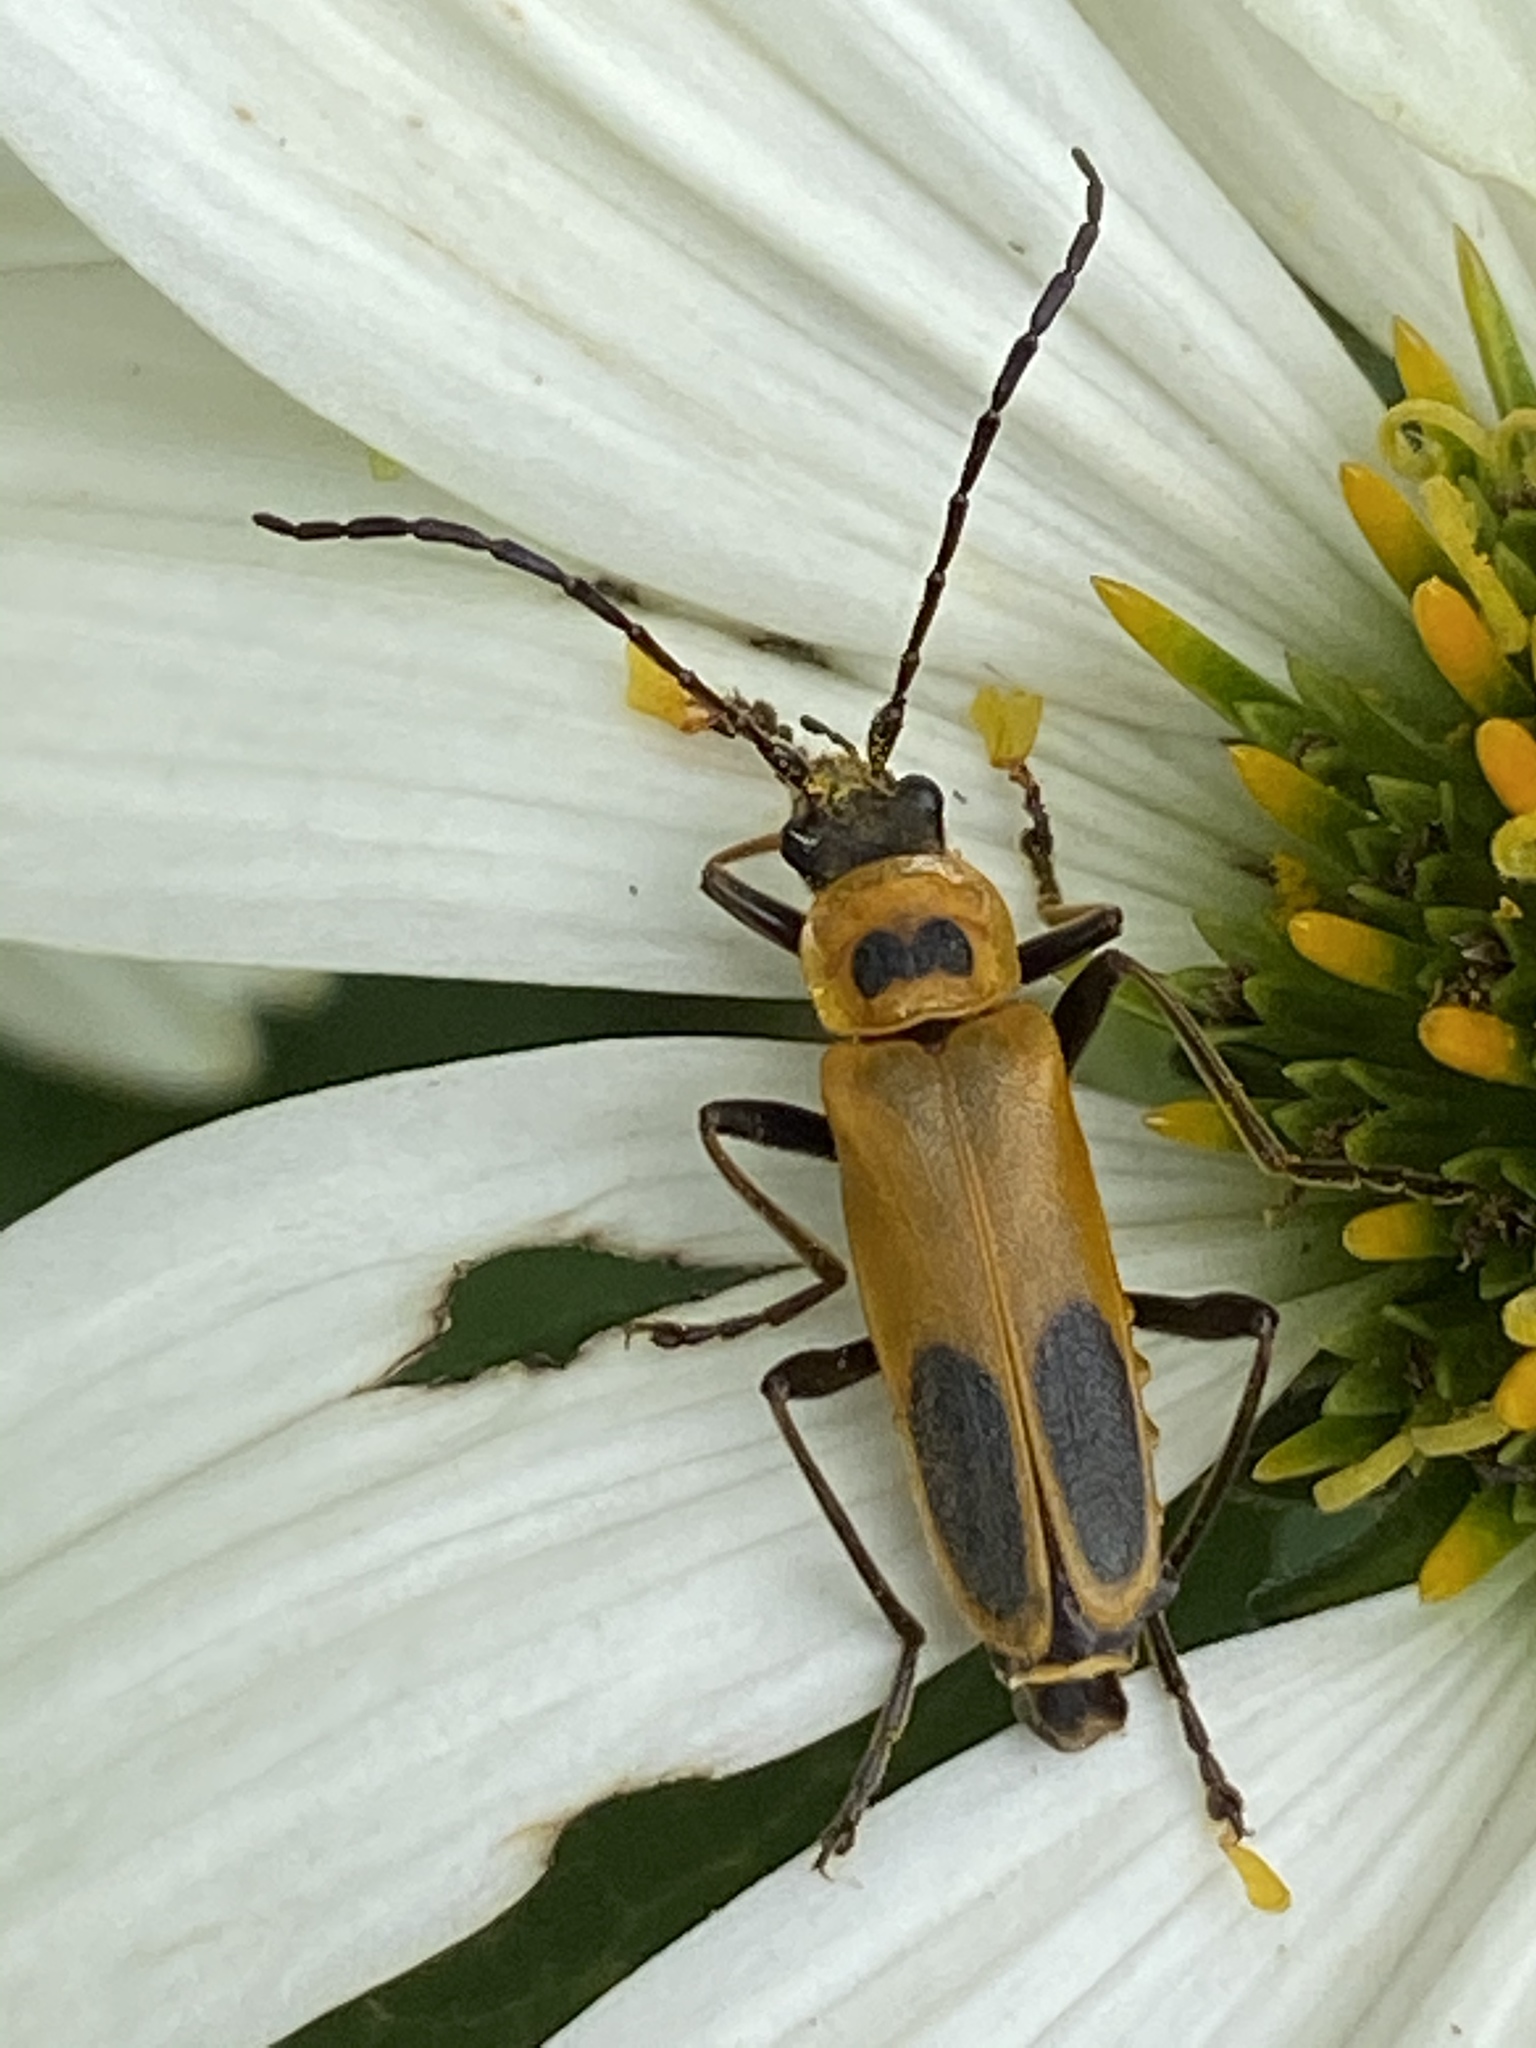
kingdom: Animalia
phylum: Arthropoda
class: Insecta
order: Coleoptera
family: Cantharidae
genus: Chauliognathus
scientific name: Chauliognathus pensylvanicus
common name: Goldenrod soldier beetle
